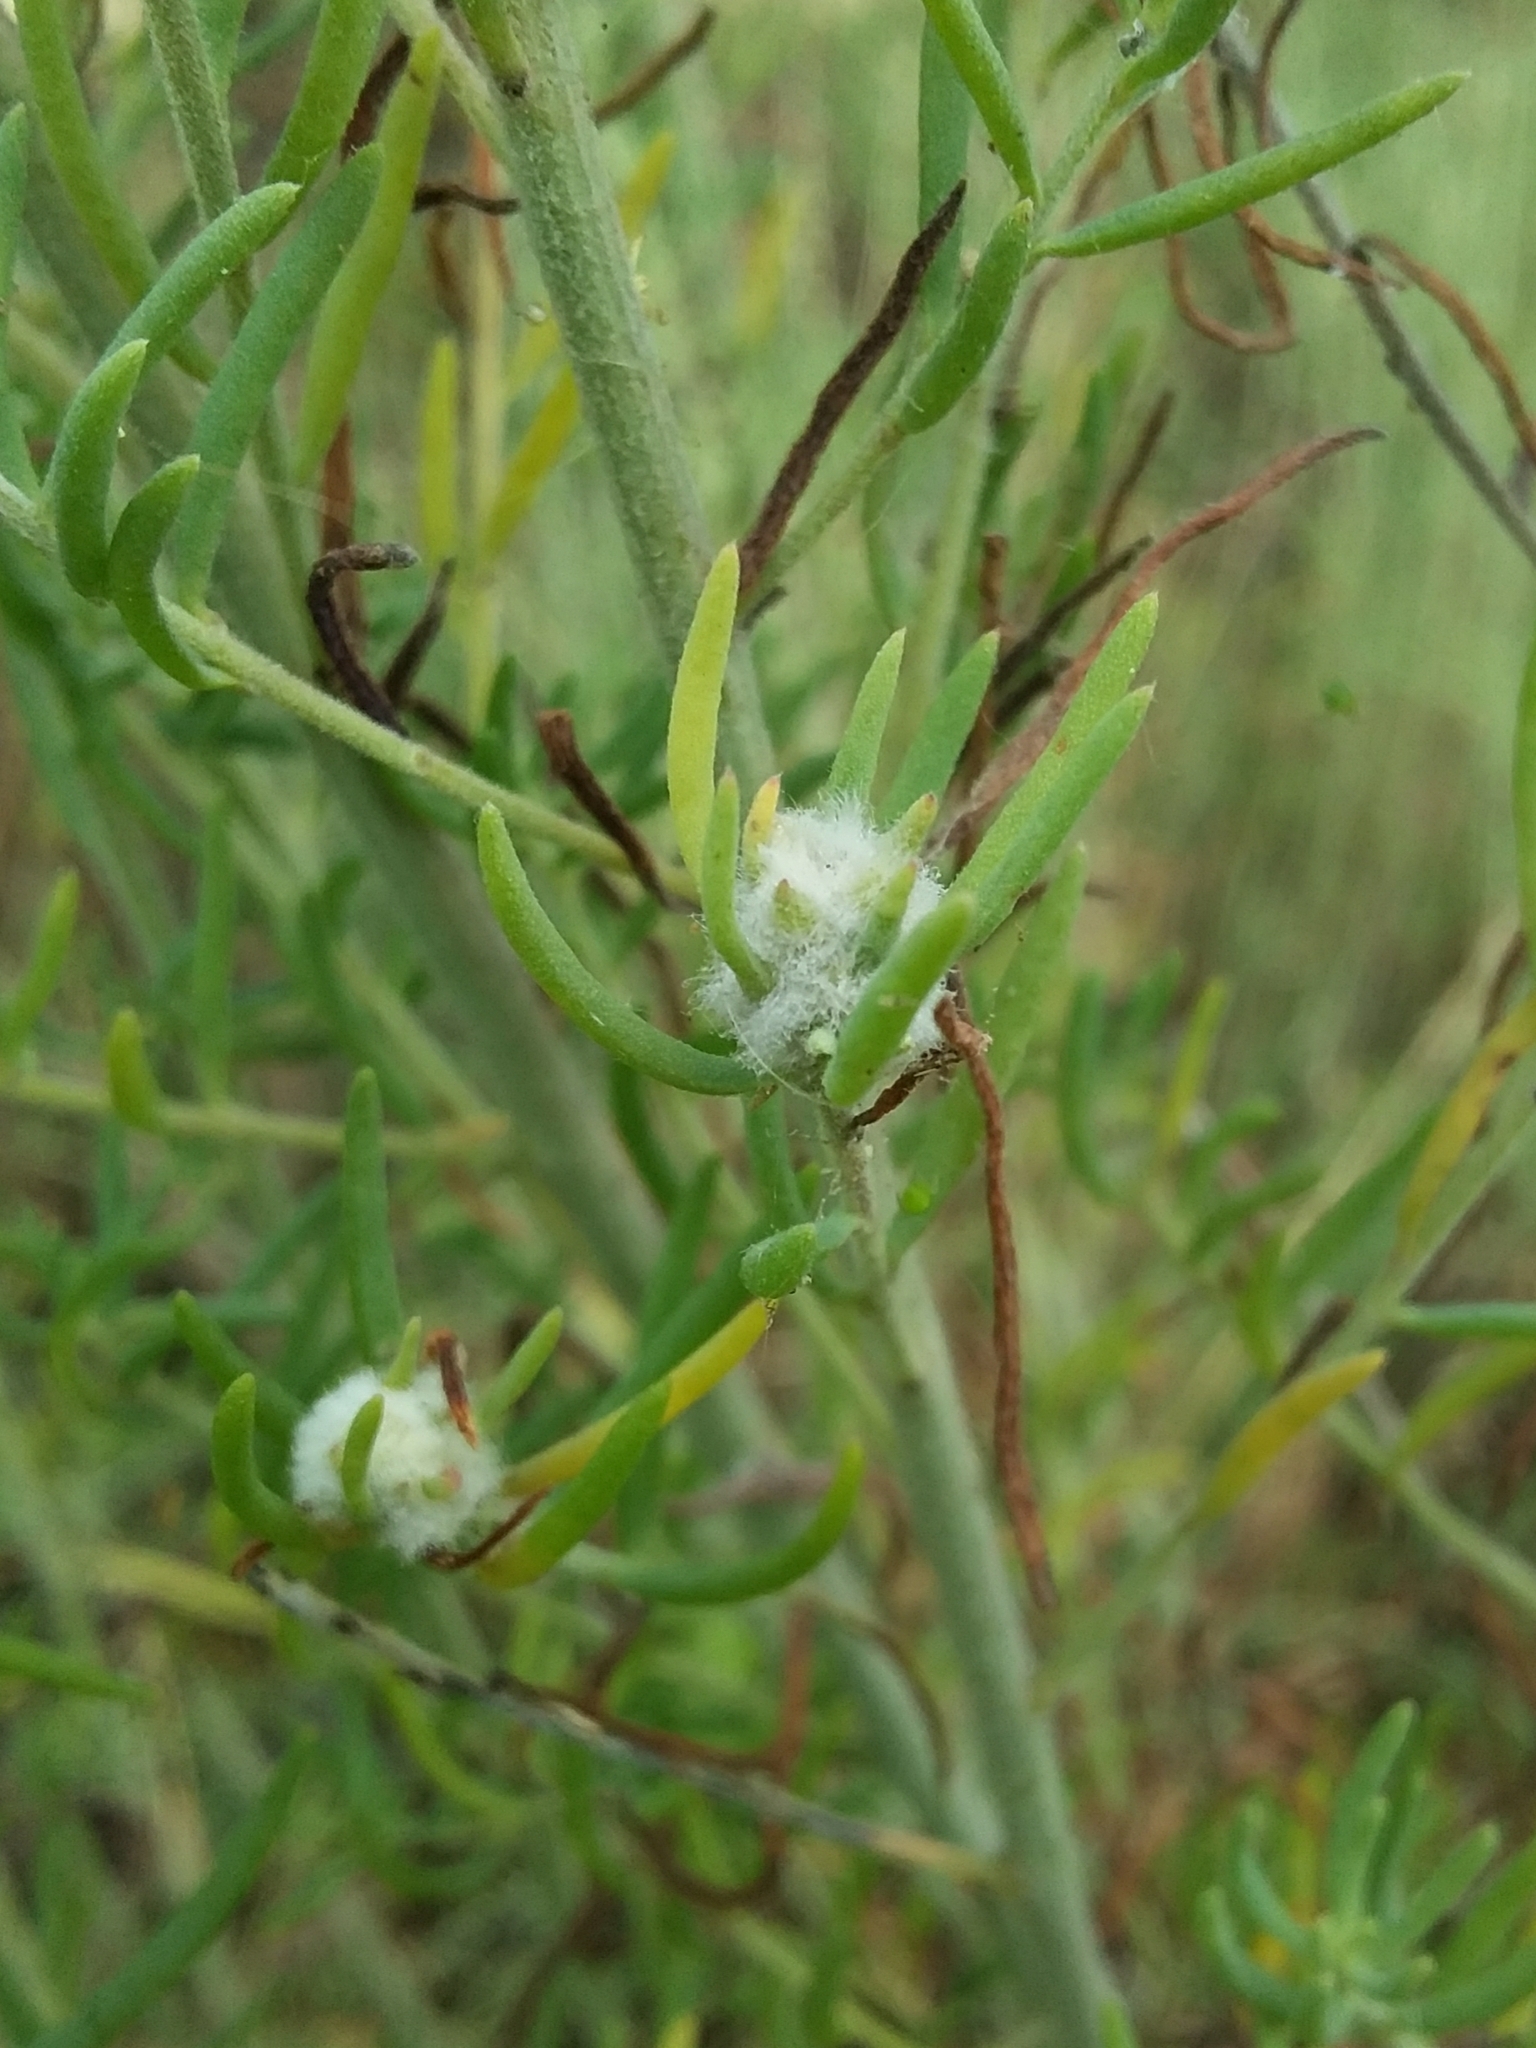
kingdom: Animalia
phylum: Arthropoda
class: Insecta
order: Diptera
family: Cecidomyiidae
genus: Asphondylia
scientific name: Asphondylia tonsura
